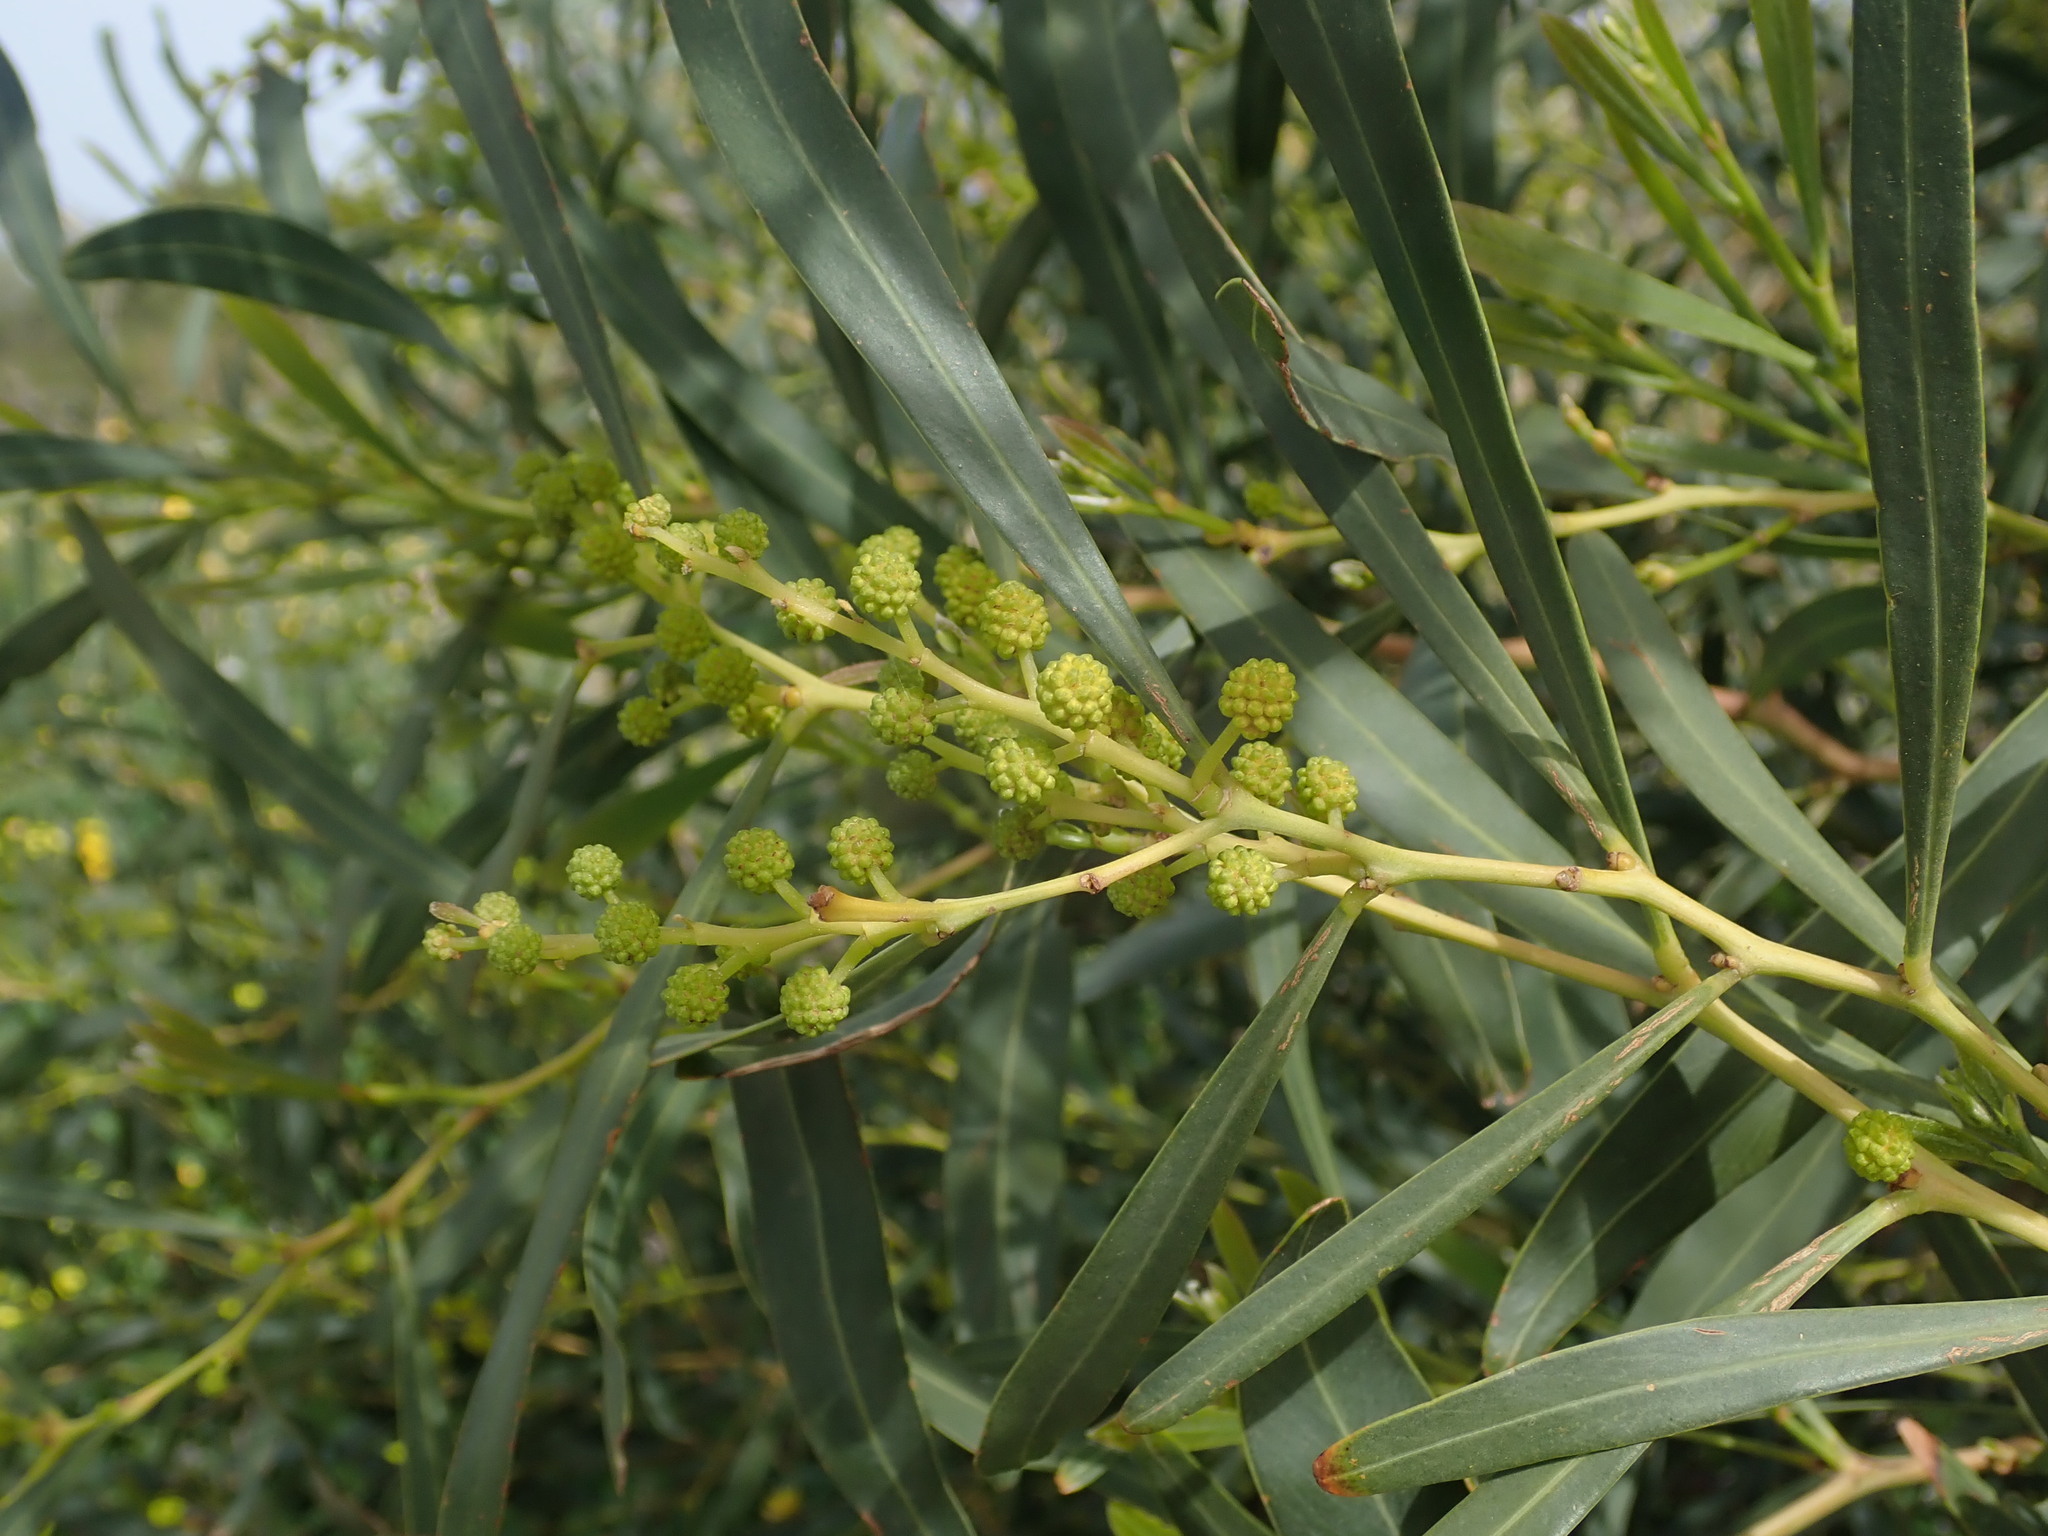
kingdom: Plantae
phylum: Tracheophyta
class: Magnoliopsida
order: Fabales
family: Fabaceae
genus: Acacia
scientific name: Acacia saligna
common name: Orange wattle
